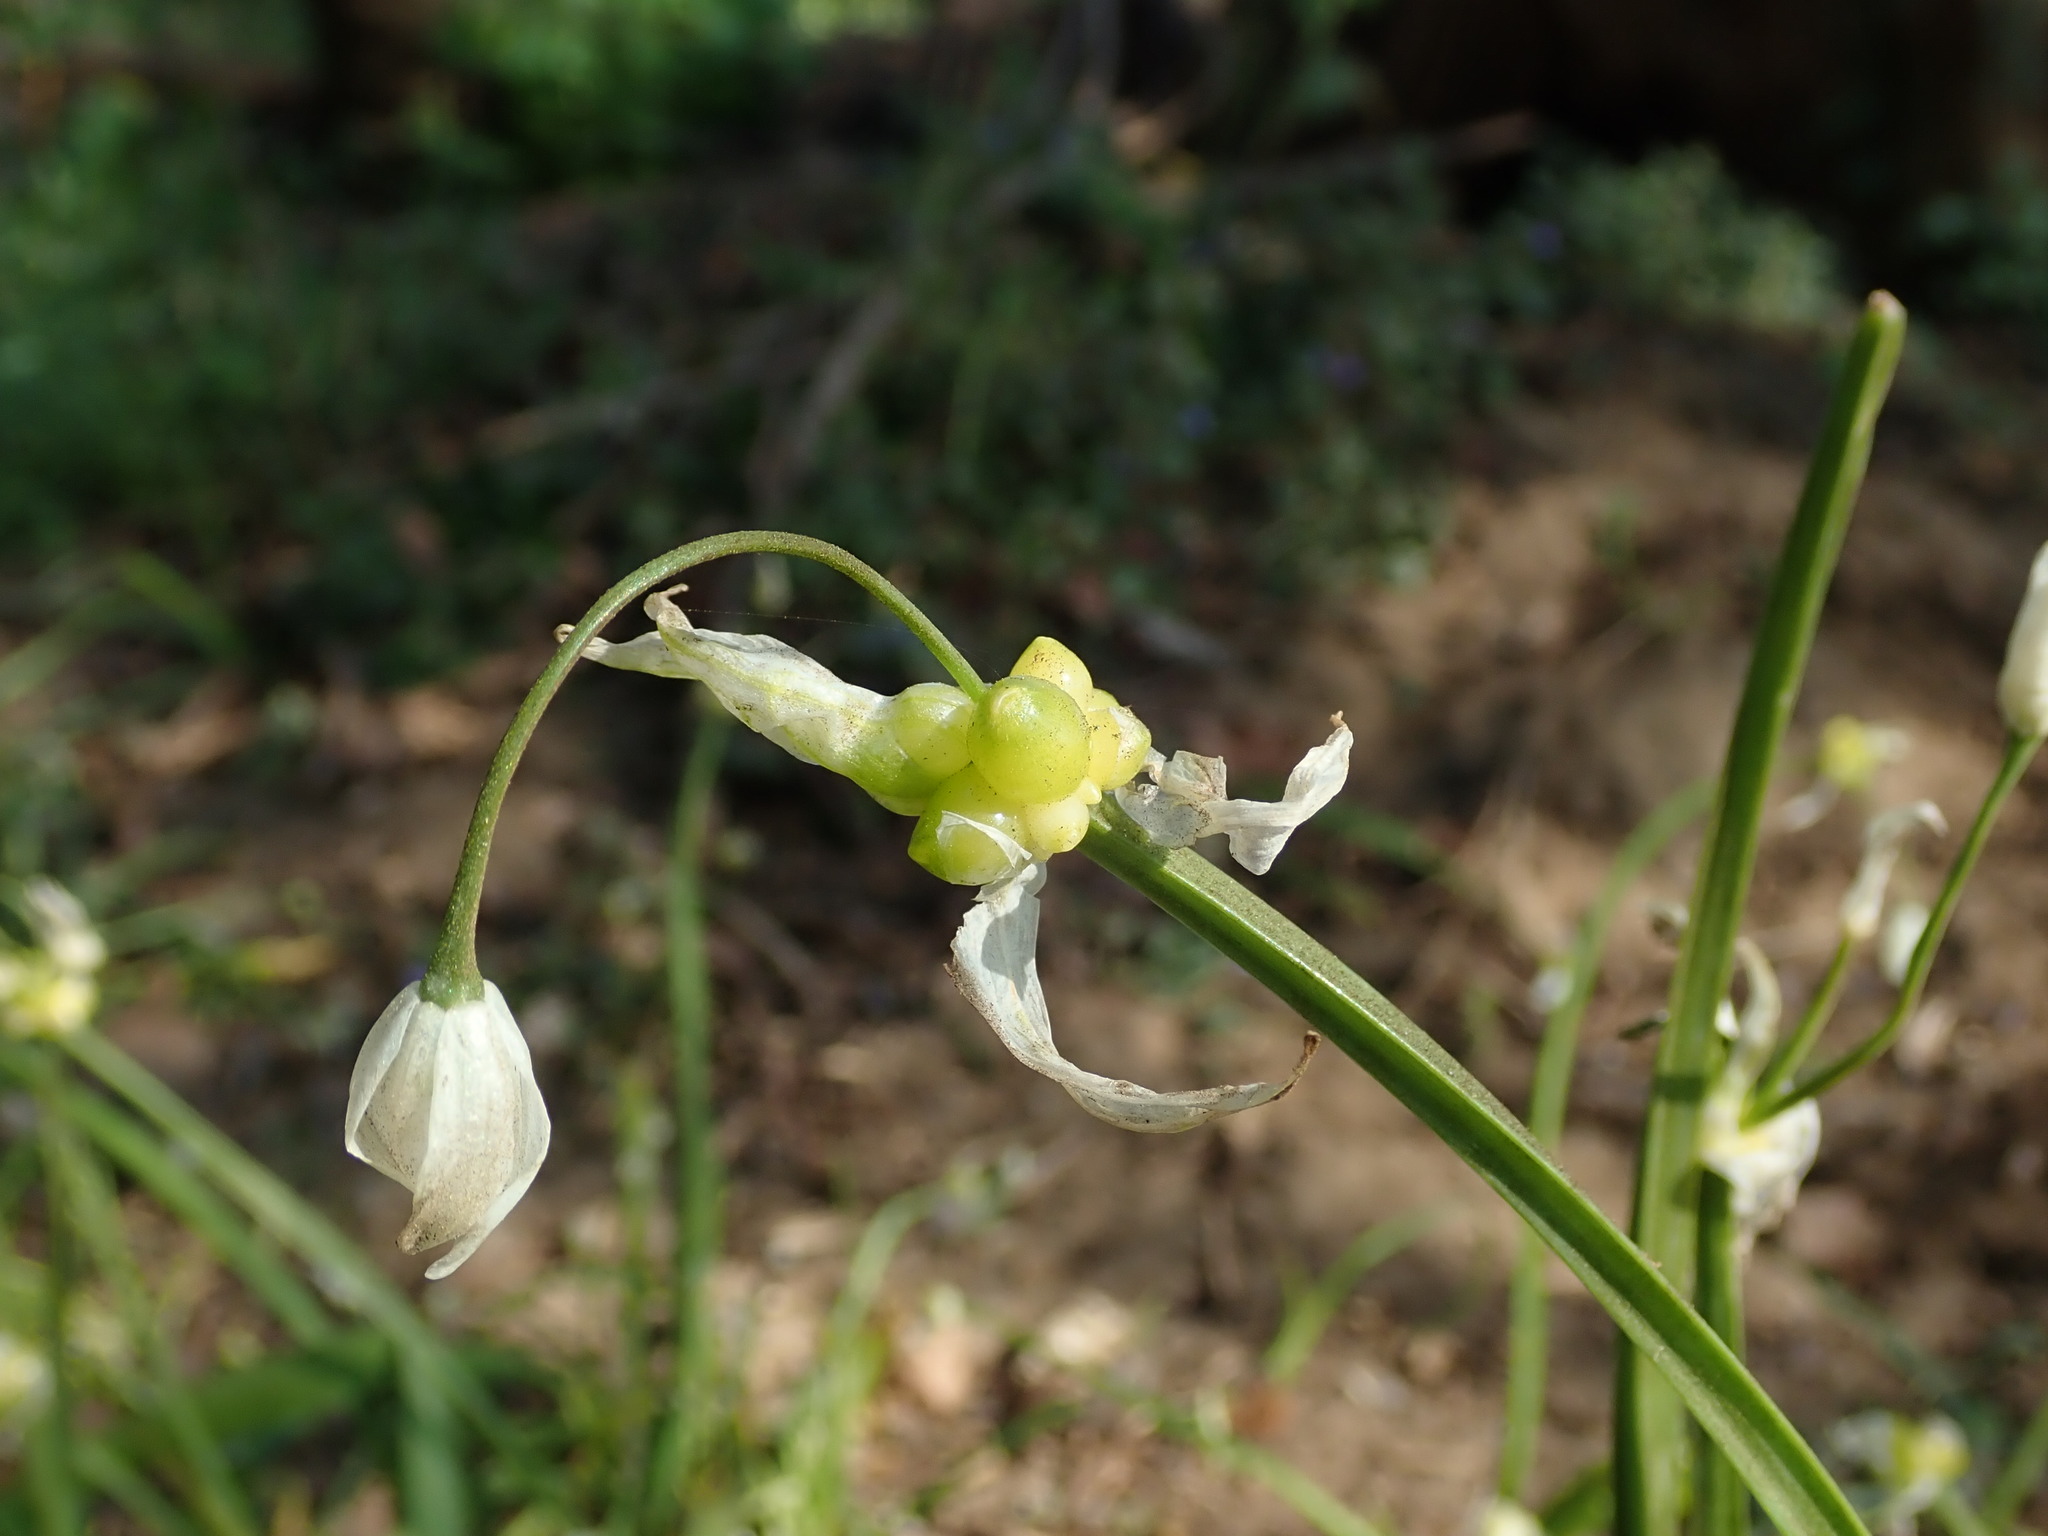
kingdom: Plantae
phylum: Tracheophyta
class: Liliopsida
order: Asparagales
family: Amaryllidaceae
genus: Allium
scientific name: Allium paradoxum
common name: Few-flowered garlic
